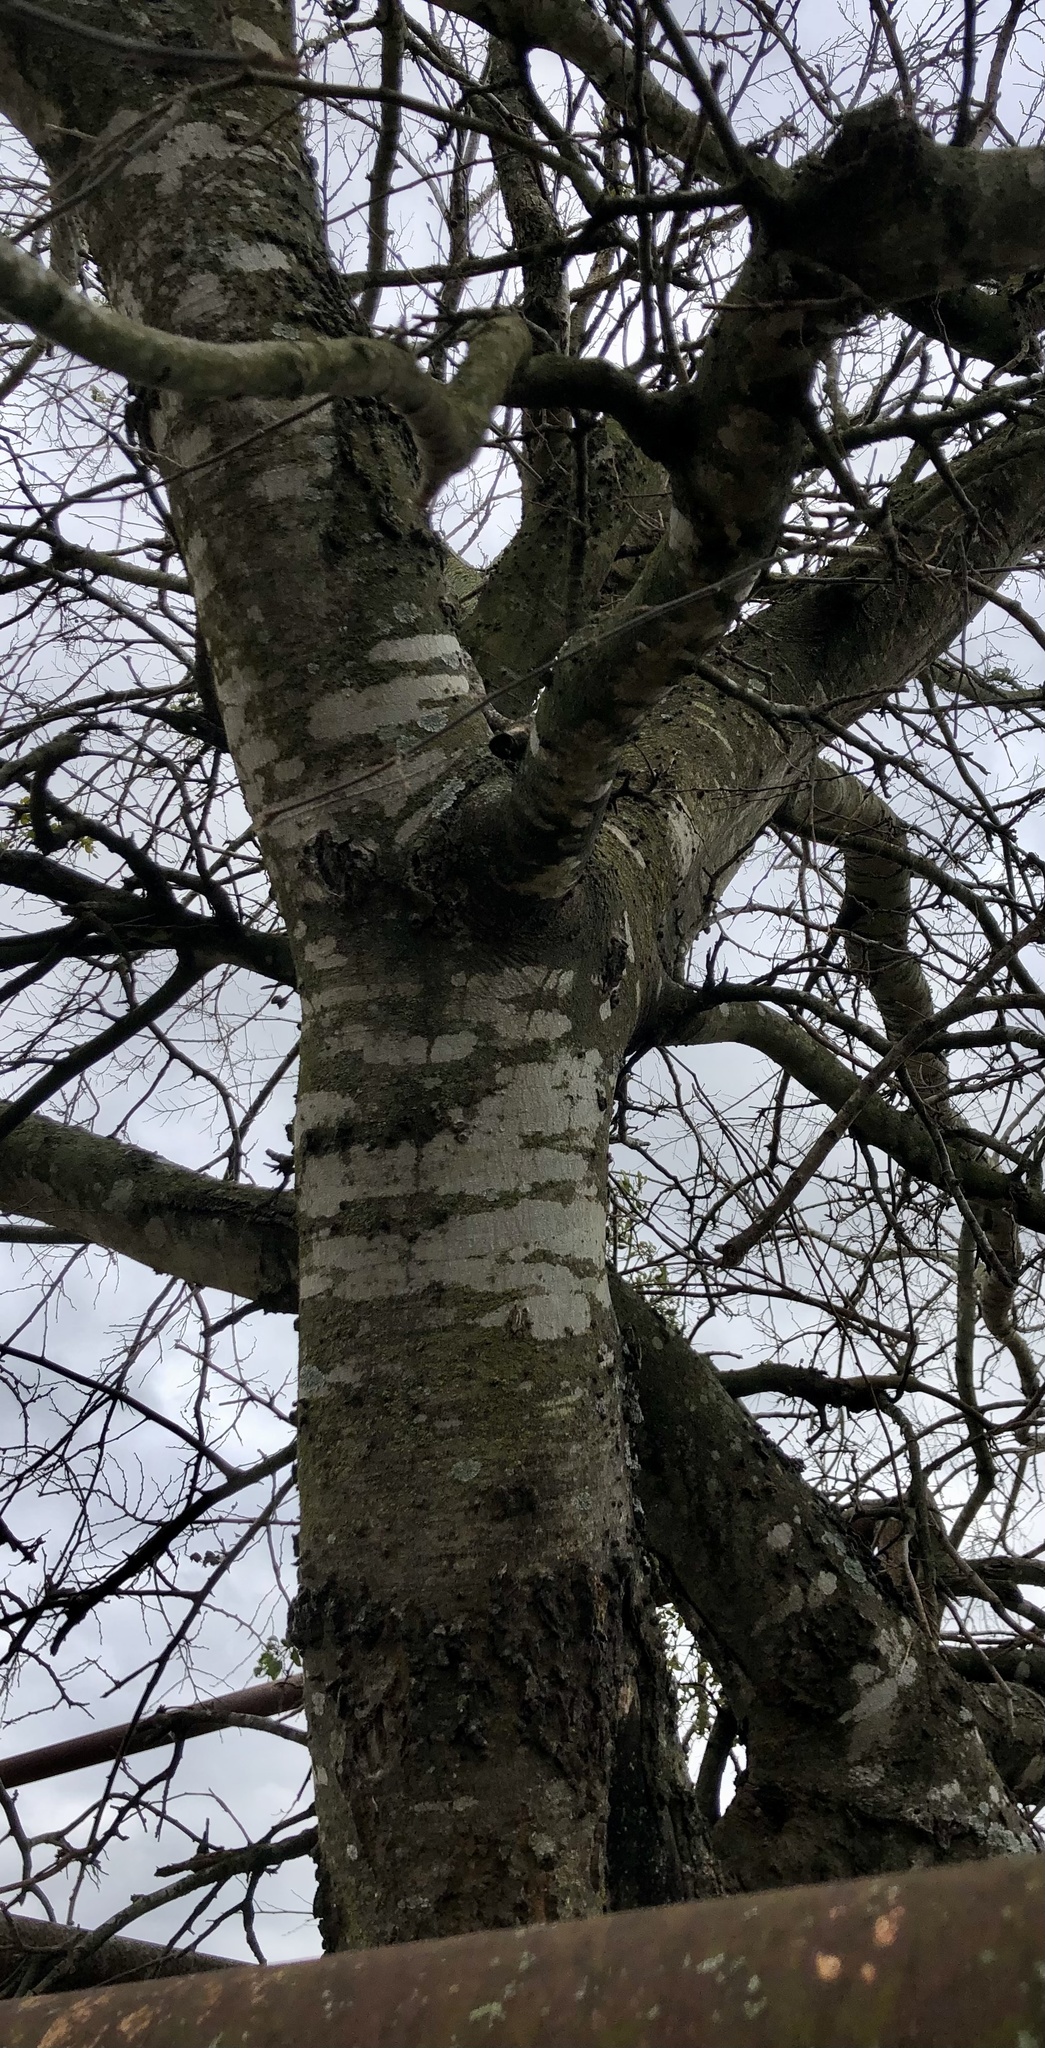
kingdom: Plantae
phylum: Tracheophyta
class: Magnoliopsida
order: Rosales
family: Cannabaceae
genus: Celtis
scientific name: Celtis laevigata
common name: Sugarberry
